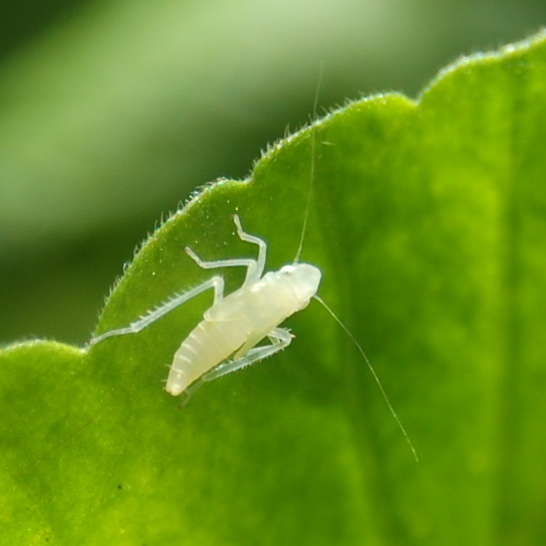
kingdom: Animalia
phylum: Arthropoda
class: Insecta
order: Hemiptera
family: Cicadellidae
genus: Sibovia
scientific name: Sibovia sagata
